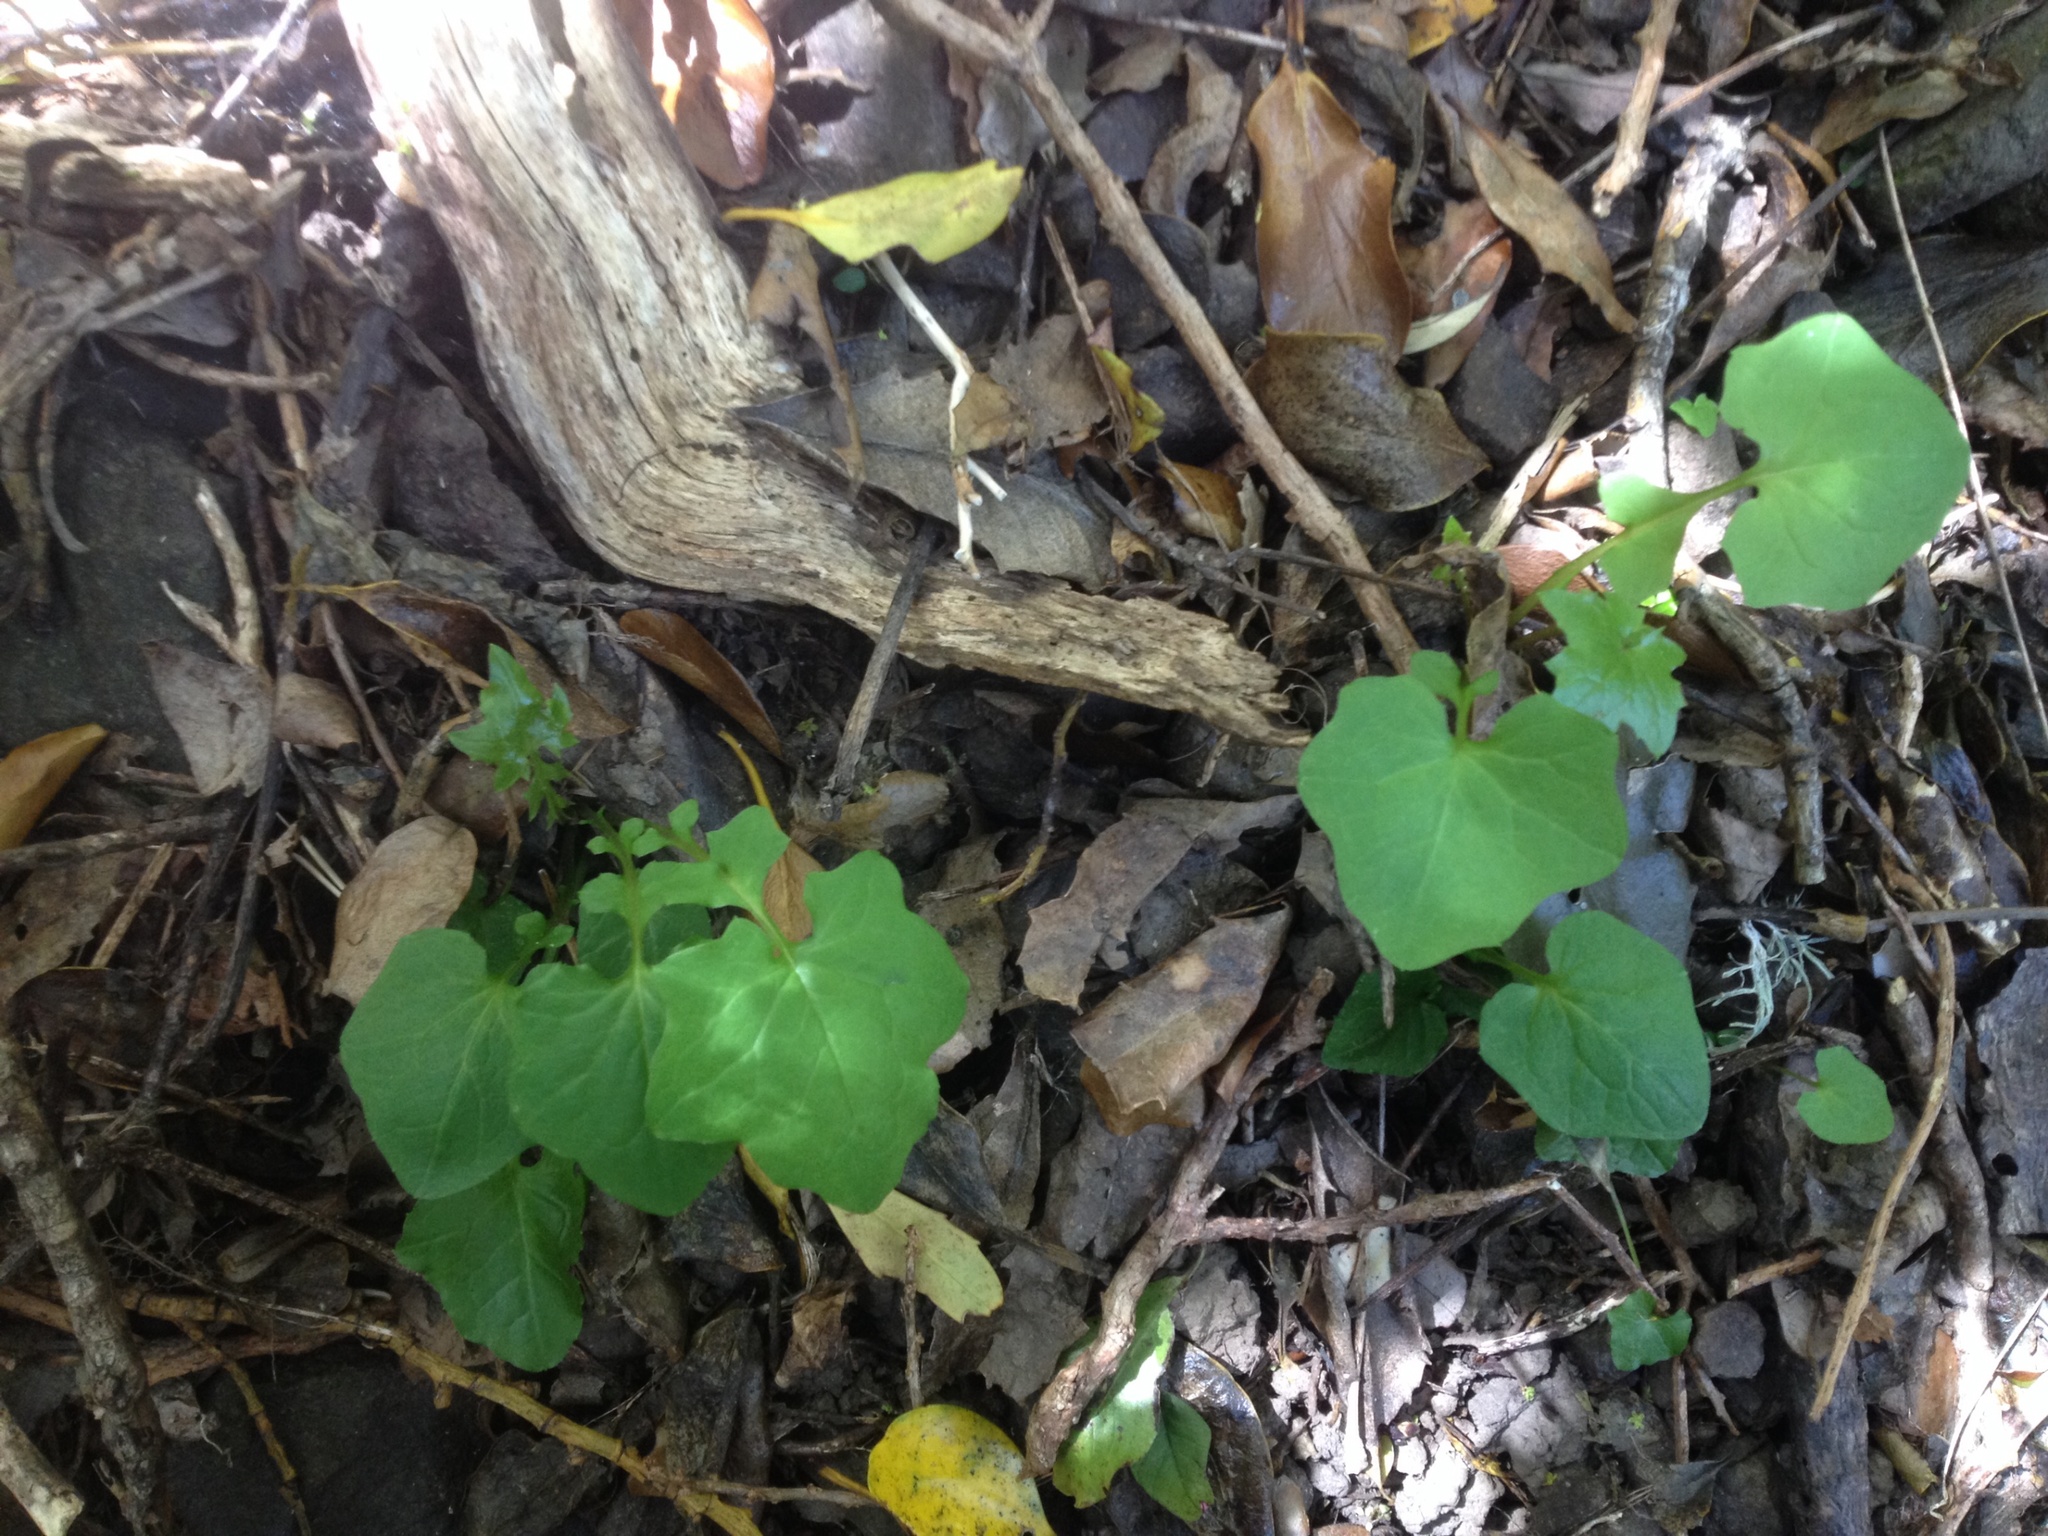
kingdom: Plantae
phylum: Tracheophyta
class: Magnoliopsida
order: Asterales
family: Asteraceae
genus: Mycelis
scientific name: Mycelis muralis
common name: Wall lettuce
